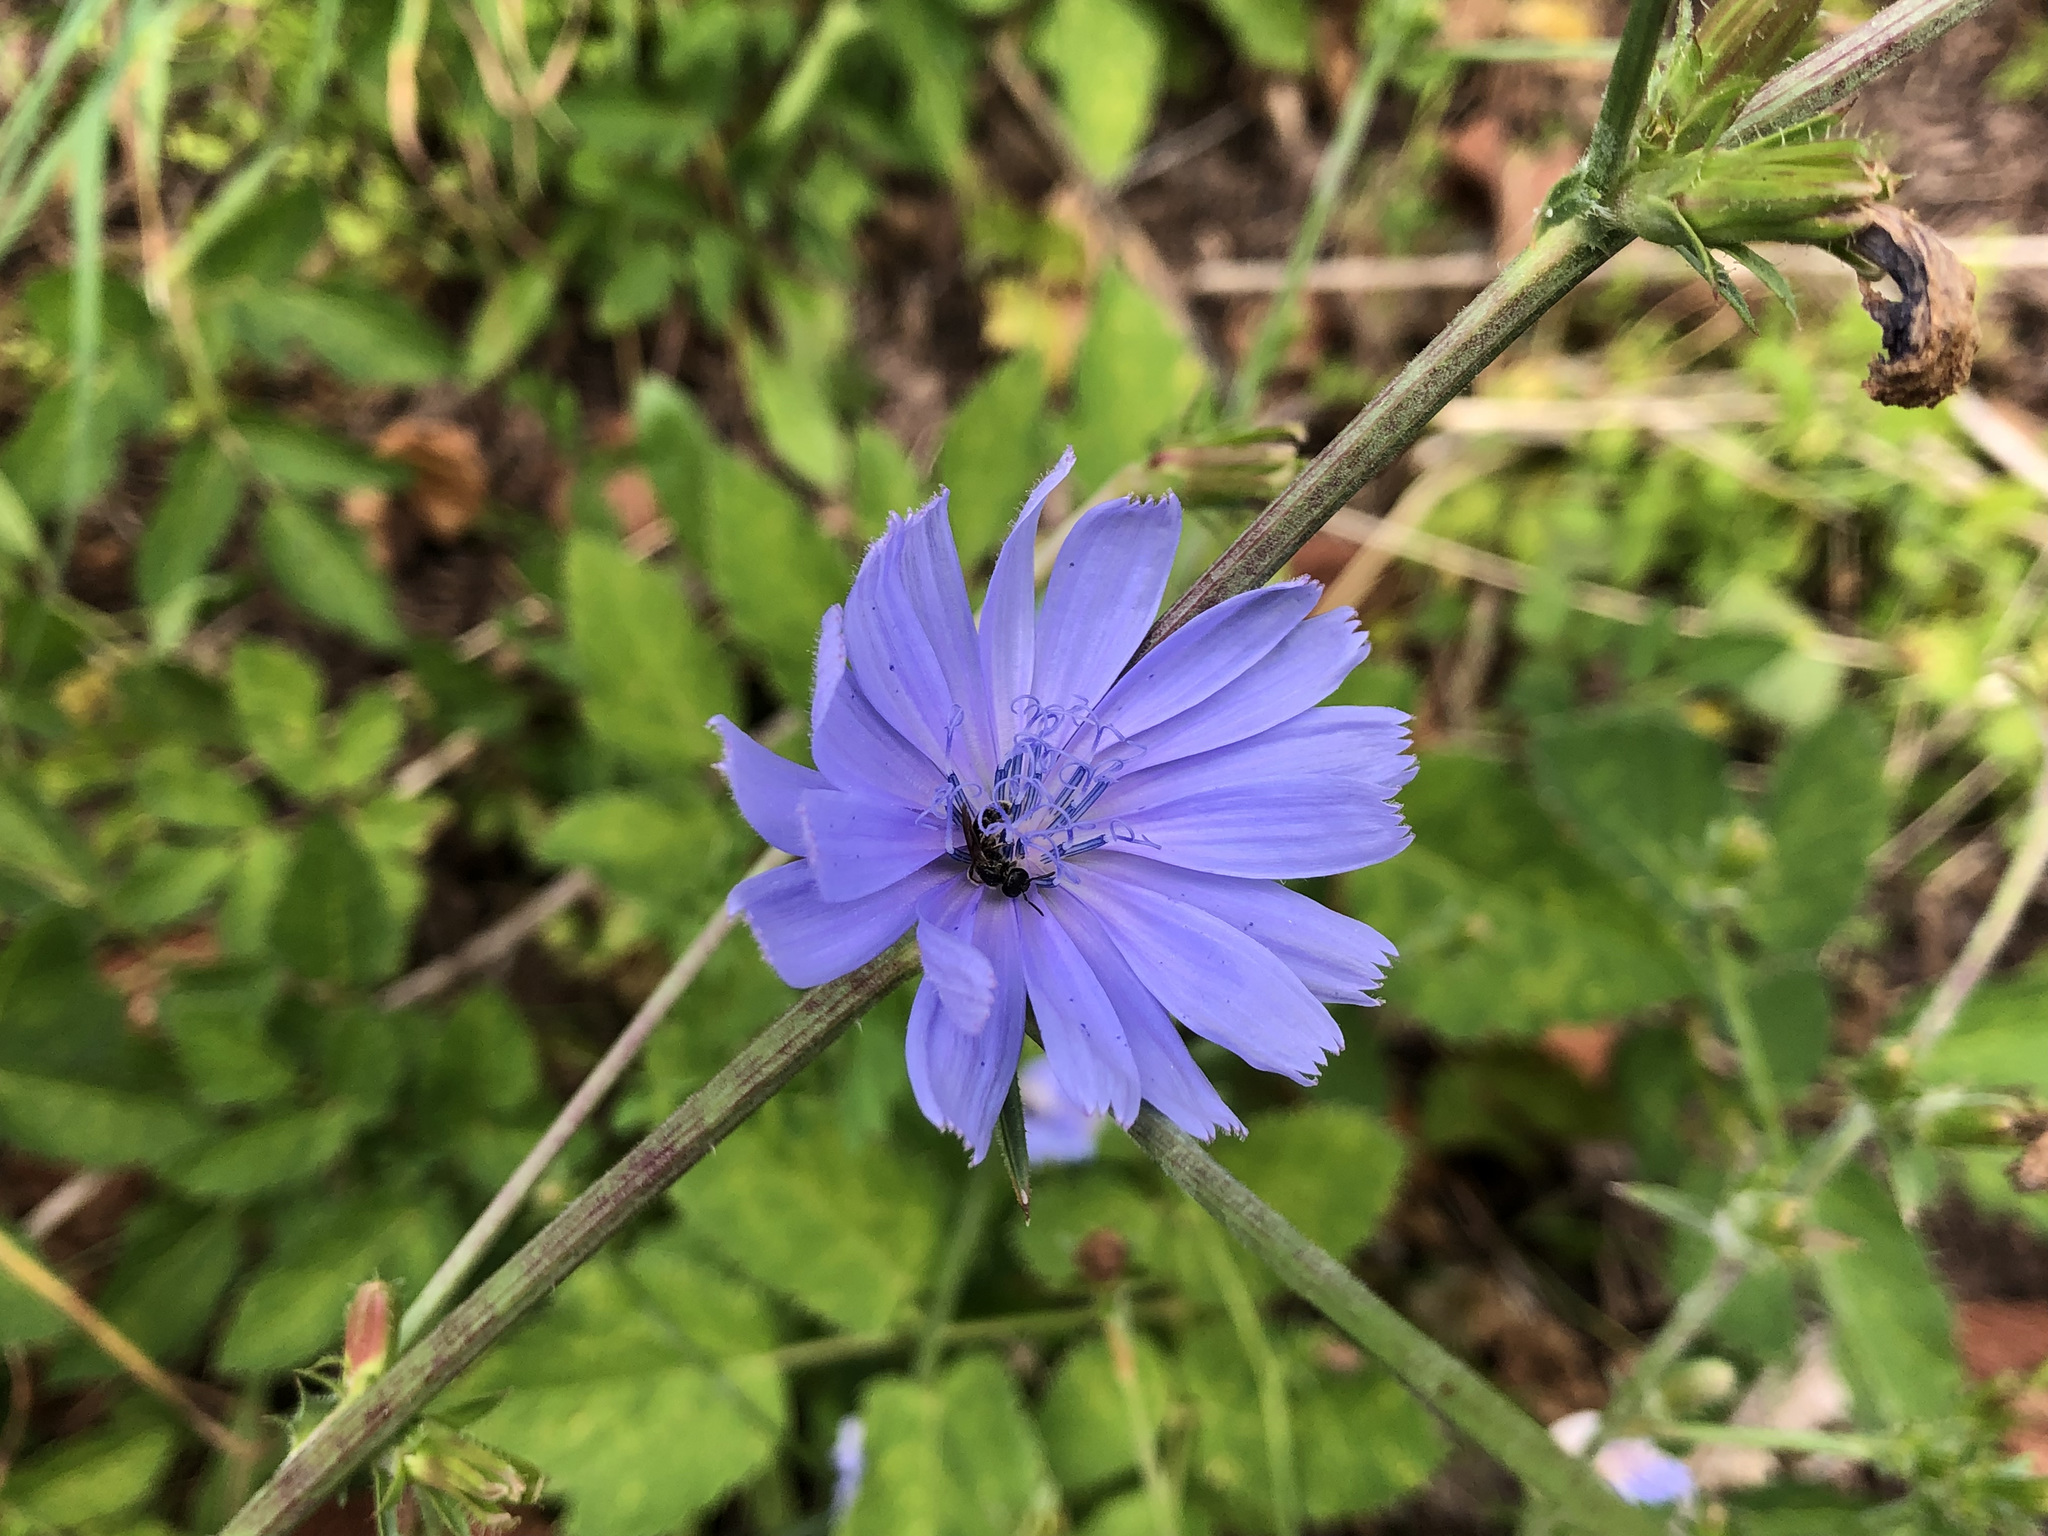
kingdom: Plantae
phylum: Tracheophyta
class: Magnoliopsida
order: Asterales
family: Asteraceae
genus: Cichorium
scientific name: Cichorium intybus
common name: Chicory
